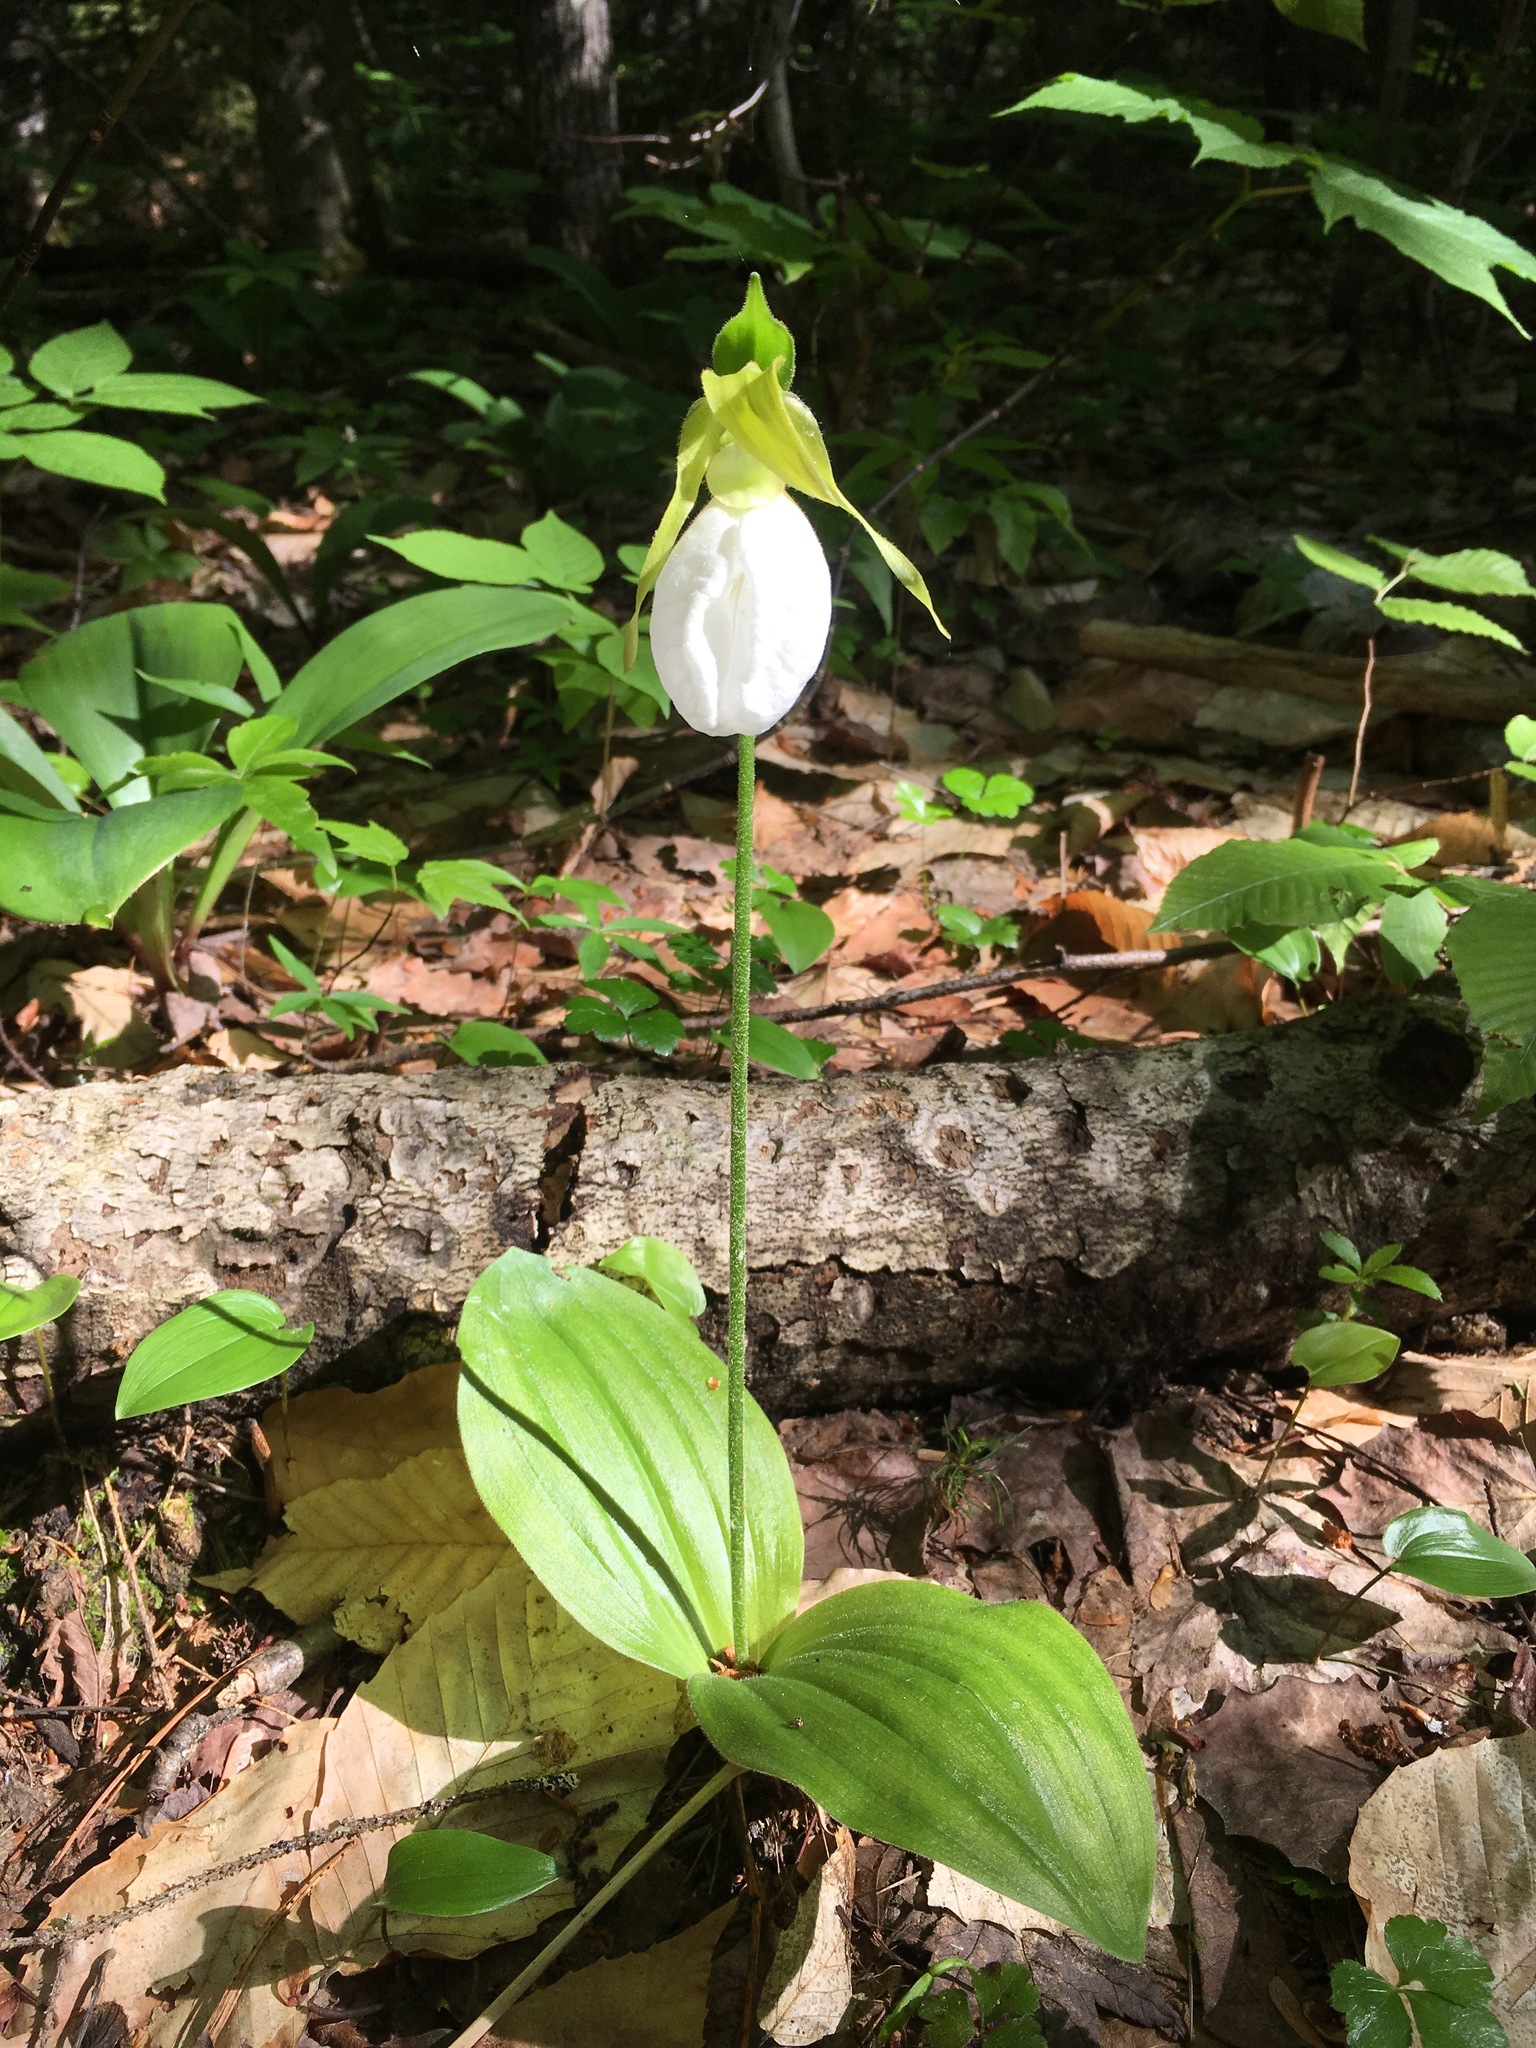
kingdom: Plantae
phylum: Tracheophyta
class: Liliopsida
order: Asparagales
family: Orchidaceae
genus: Cypripedium
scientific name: Cypripedium acaule
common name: Pink lady's-slipper
